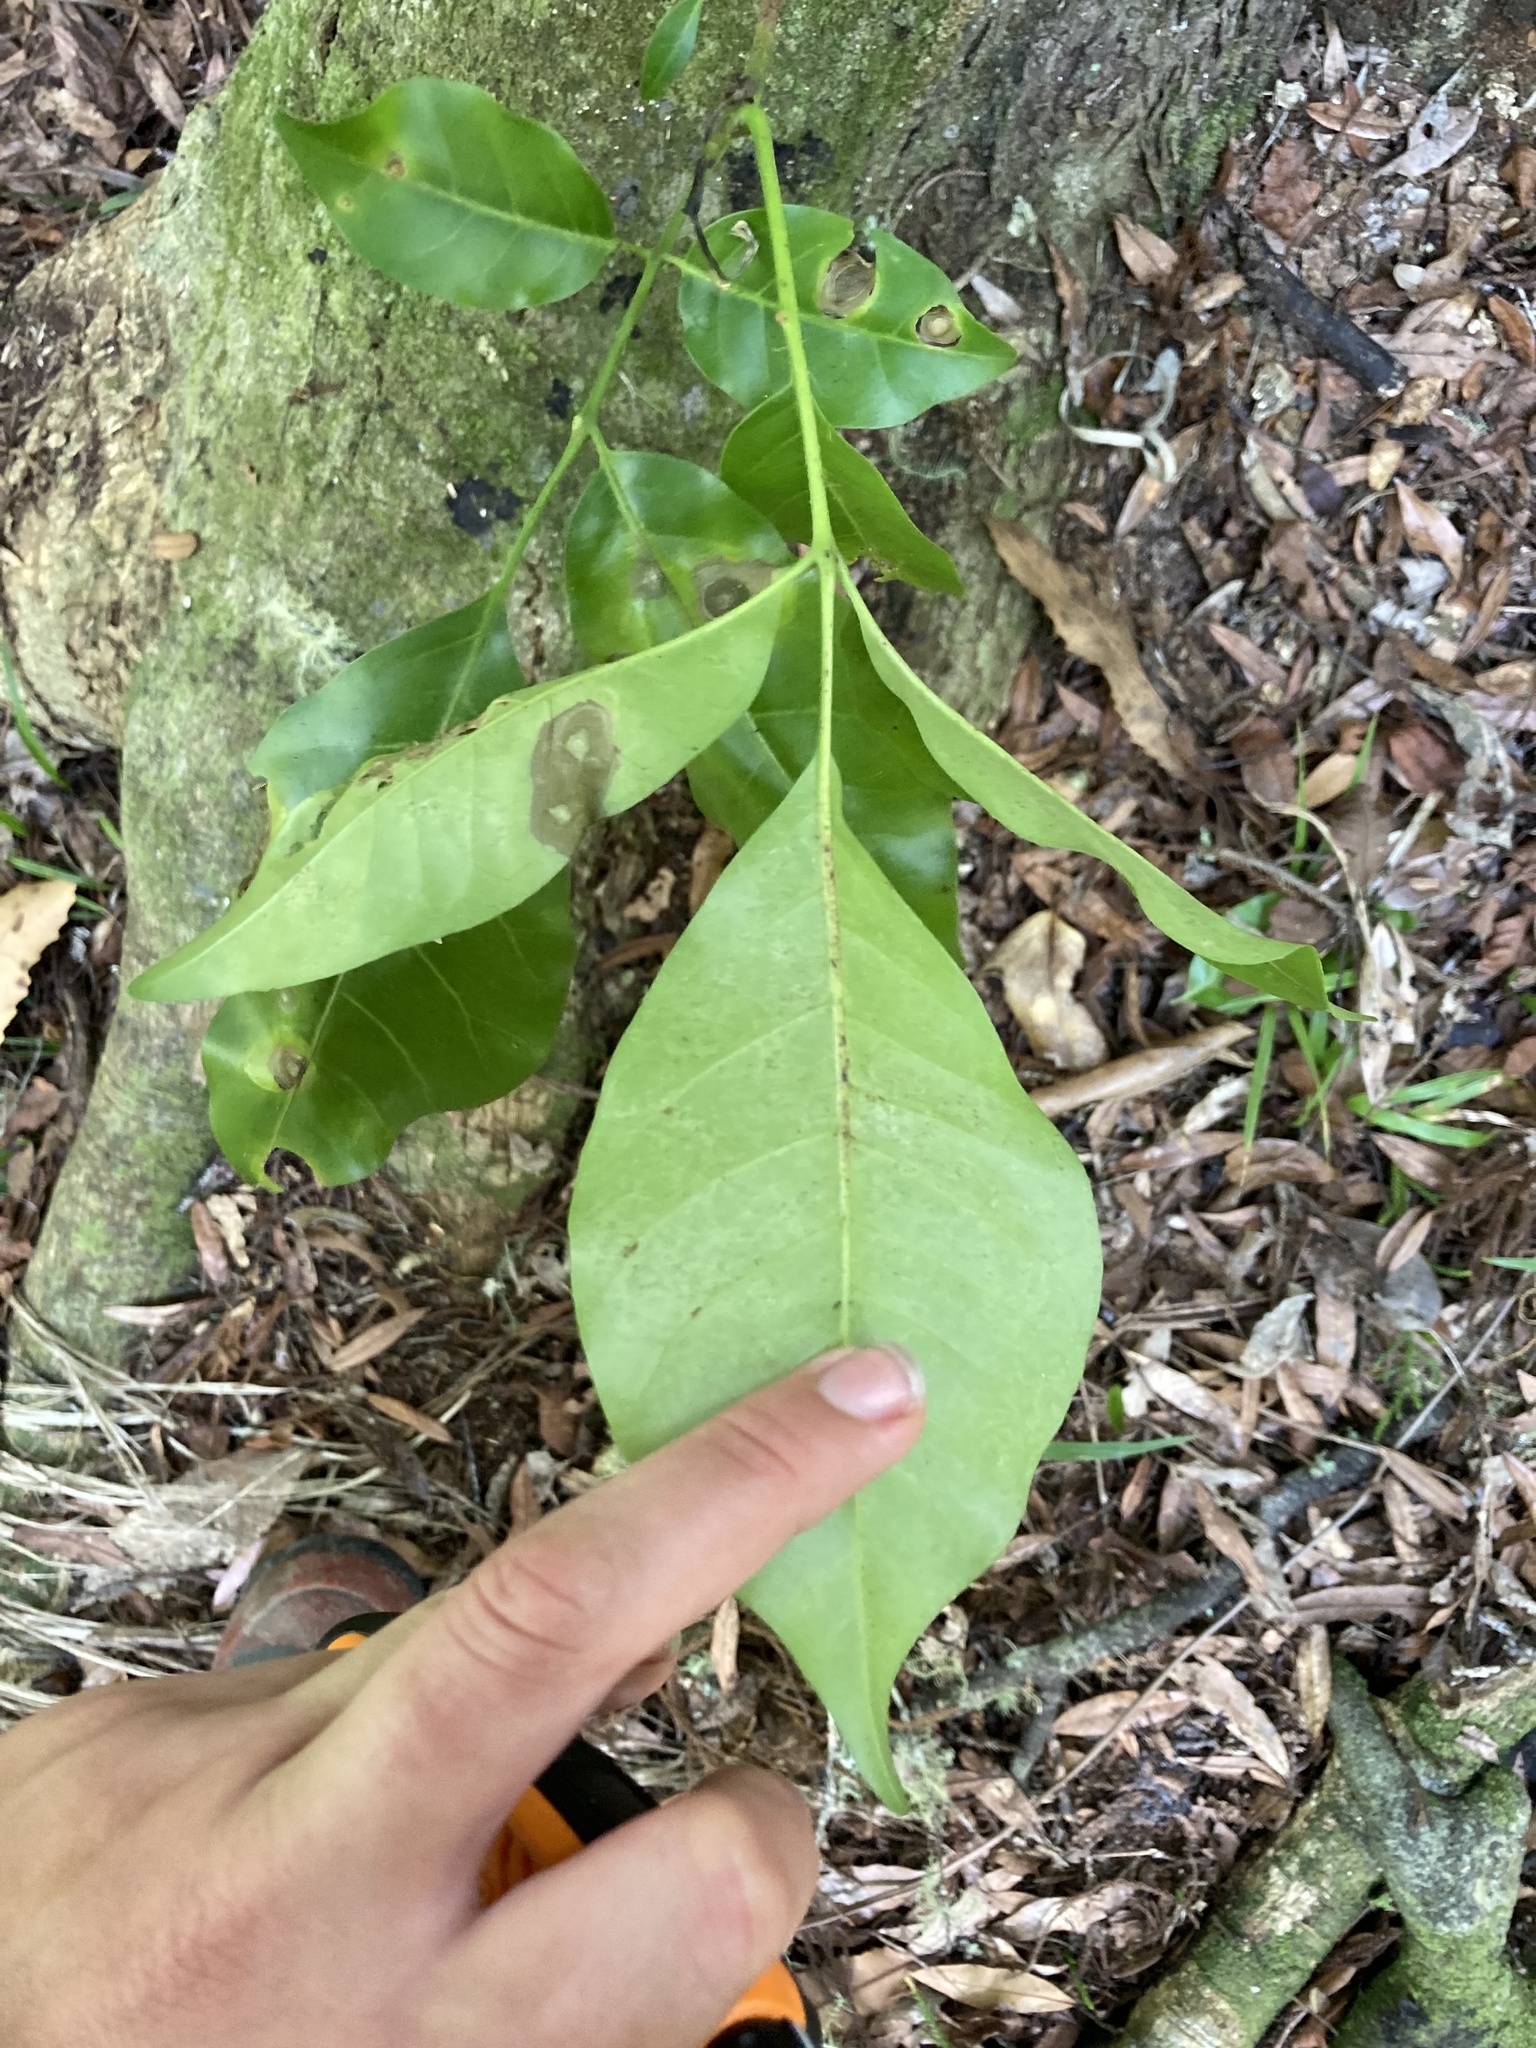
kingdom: Plantae
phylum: Tracheophyta
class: Magnoliopsida
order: Sapindales
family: Meliaceae
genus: Didymocheton
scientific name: Didymocheton spectabilis
